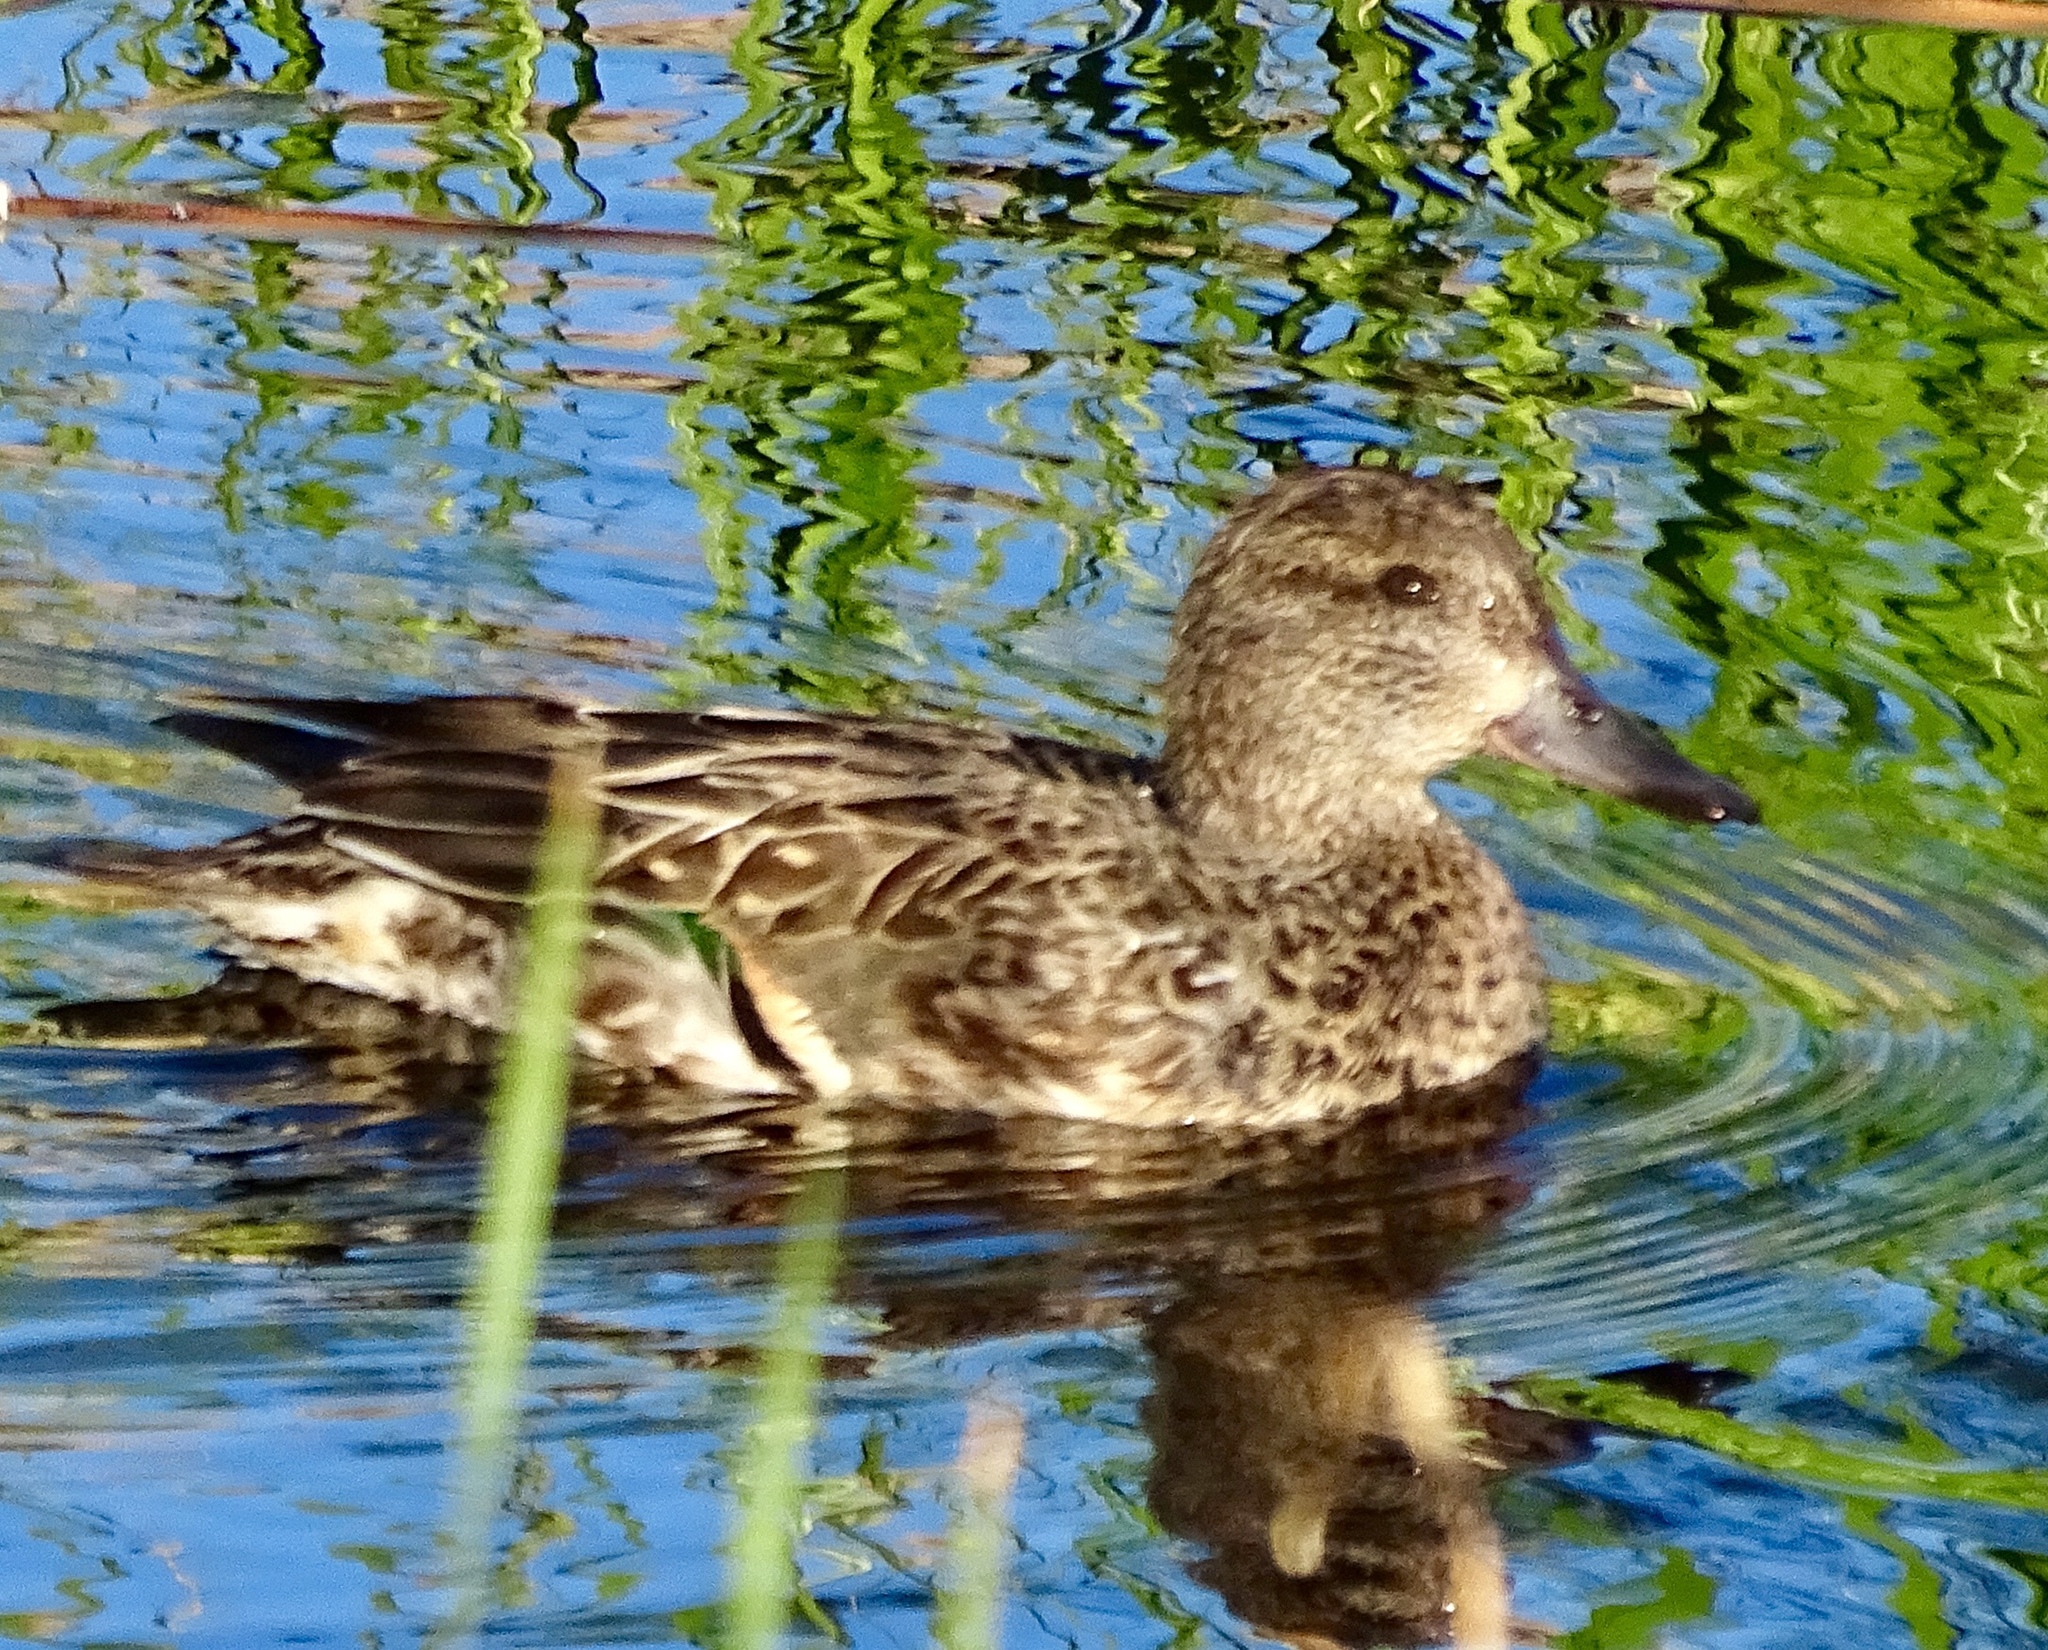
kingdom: Animalia
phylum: Chordata
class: Aves
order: Anseriformes
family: Anatidae
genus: Anas
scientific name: Anas crecca
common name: Eurasian teal
